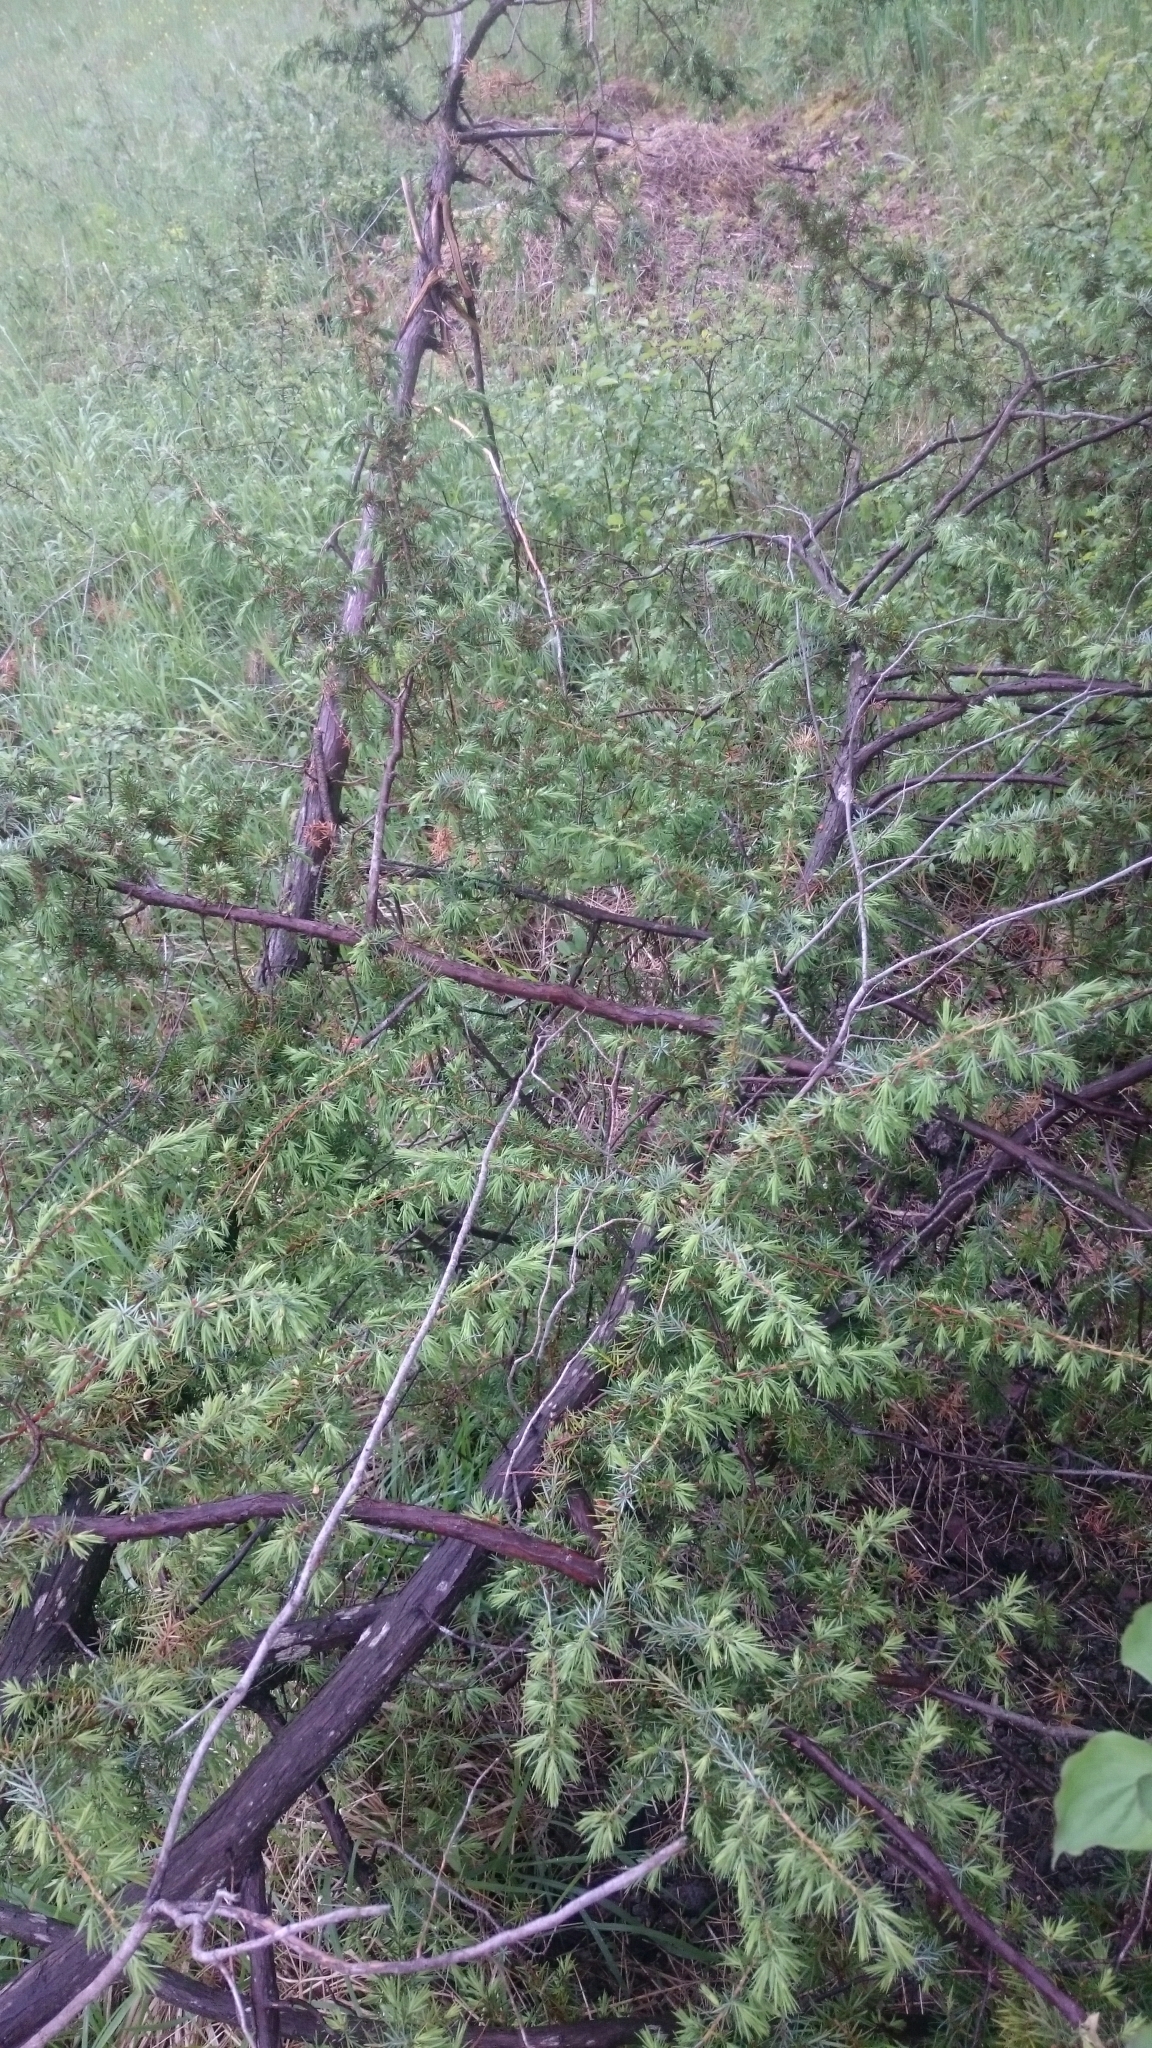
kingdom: Plantae
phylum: Tracheophyta
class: Pinopsida
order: Pinales
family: Cupressaceae
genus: Juniperus
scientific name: Juniperus communis
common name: Common juniper
